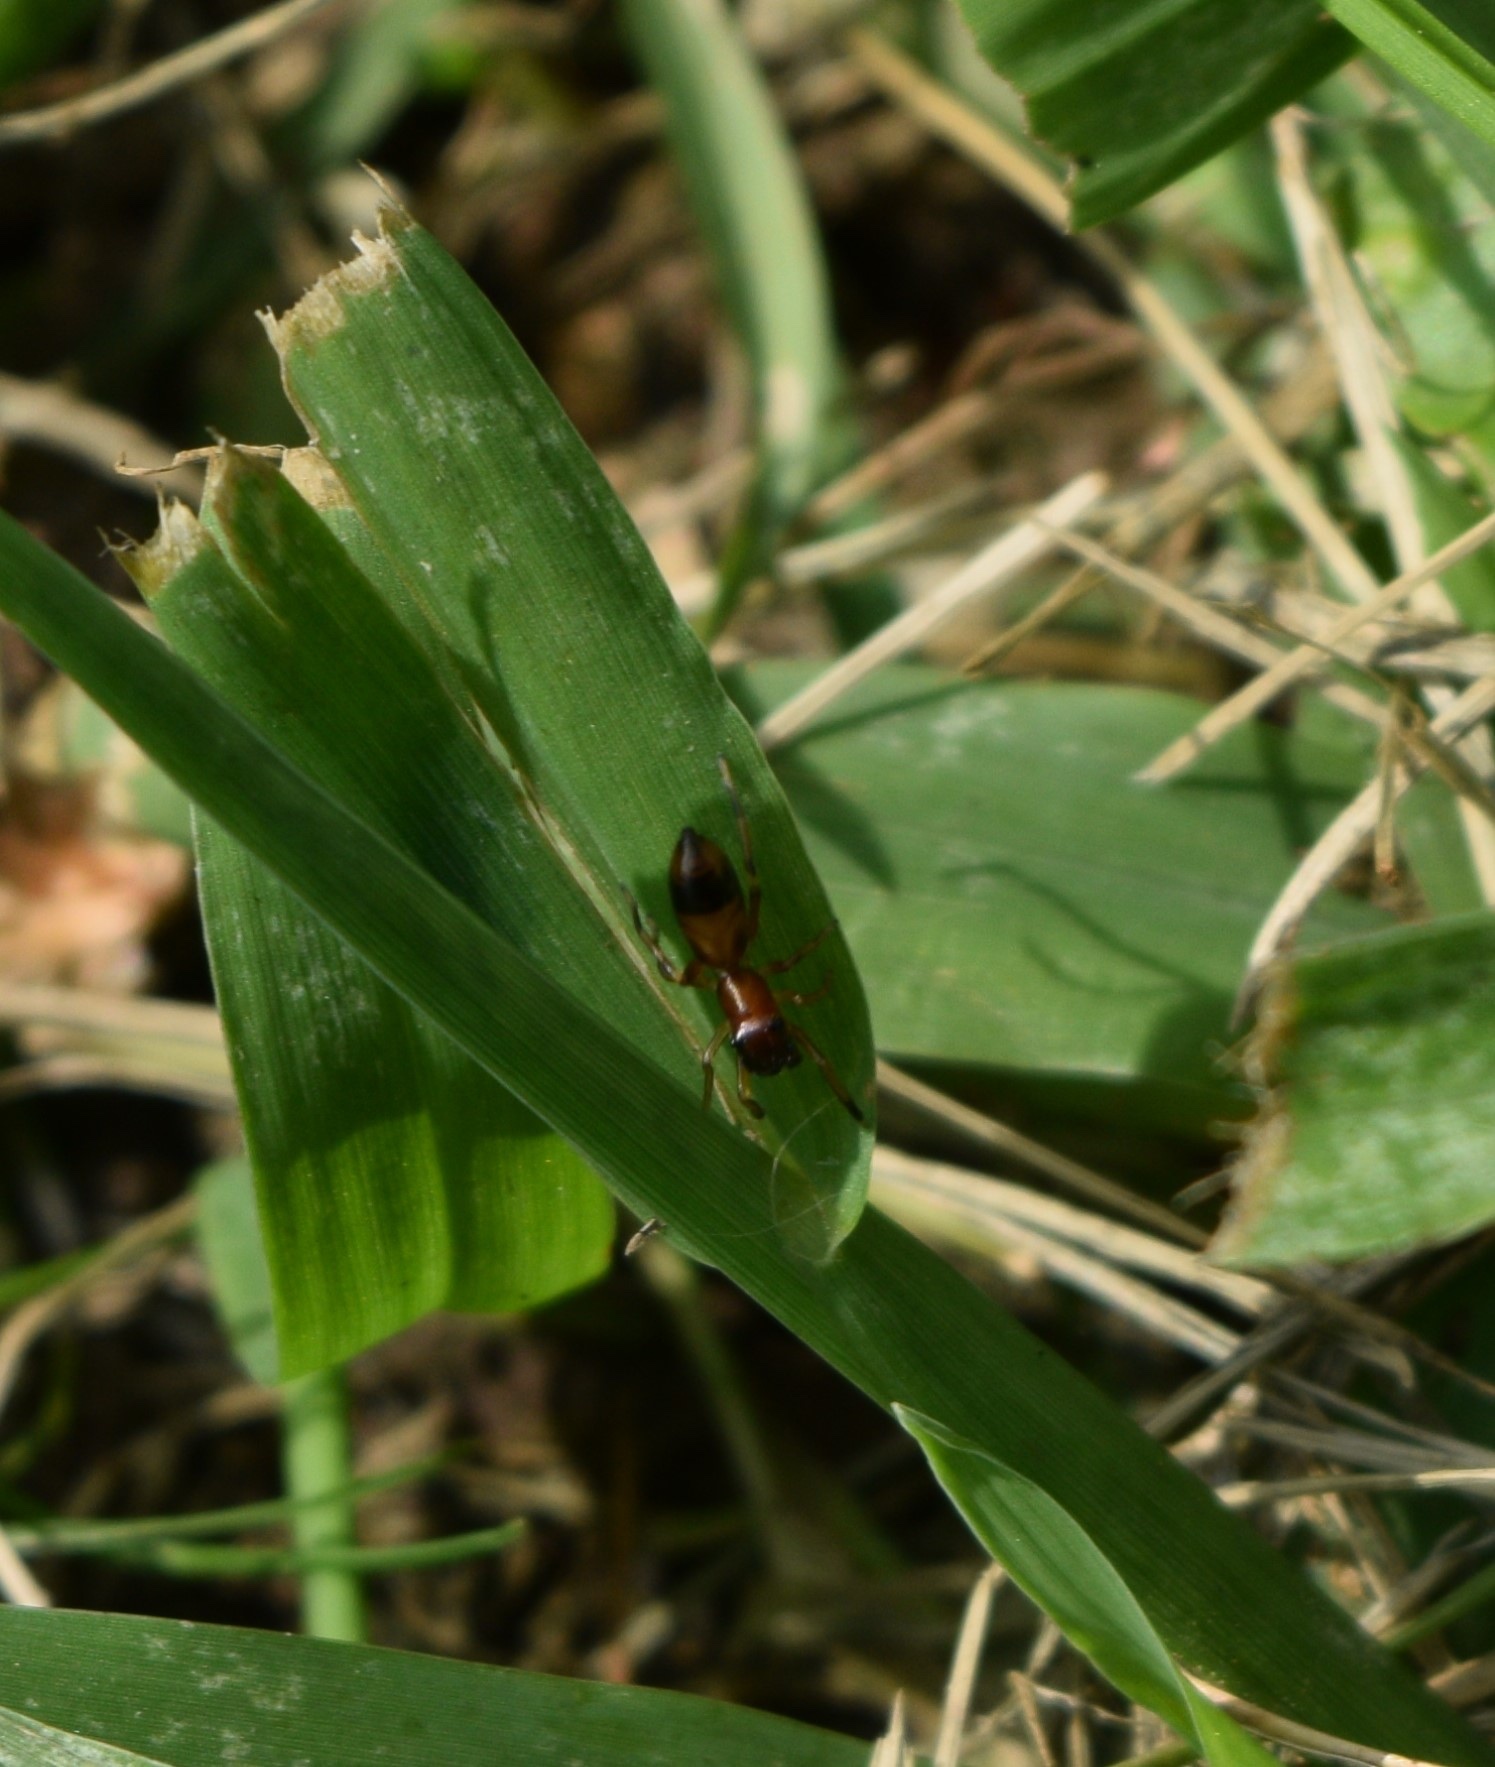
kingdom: Animalia
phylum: Arthropoda
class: Arachnida
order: Araneae
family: Salticidae
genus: Myrmarachne
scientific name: Myrmarachne formicaria
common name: Ant mimic jumping spider
